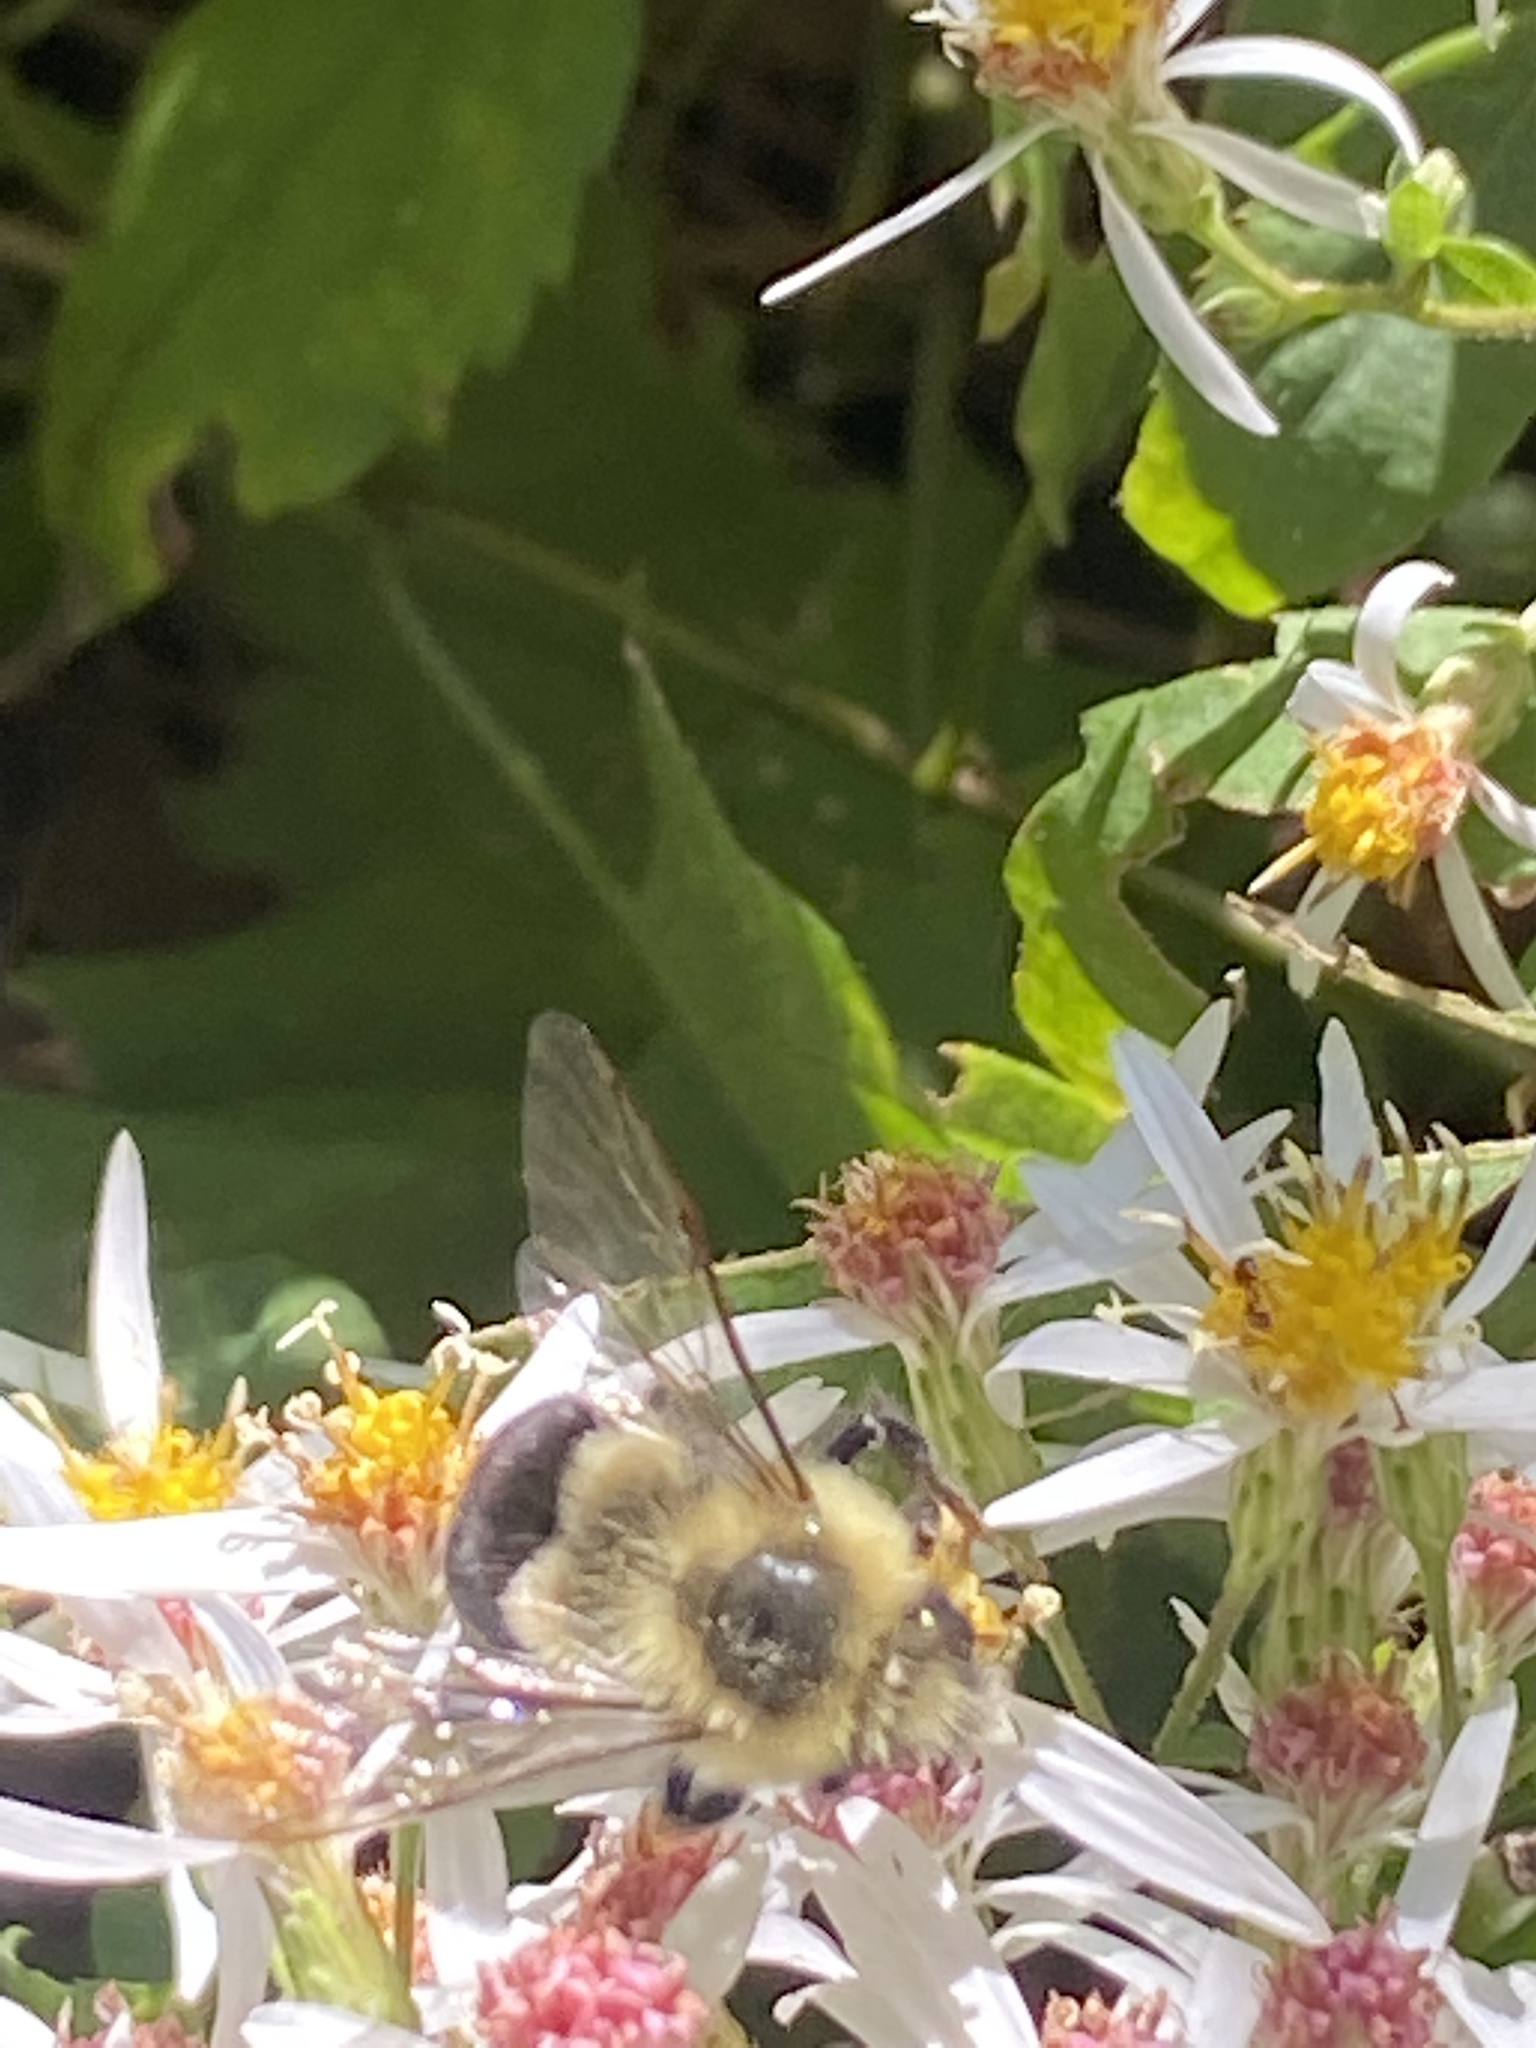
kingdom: Animalia
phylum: Arthropoda
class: Insecta
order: Hymenoptera
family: Apidae
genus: Bombus
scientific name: Bombus impatiens
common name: Common eastern bumble bee
